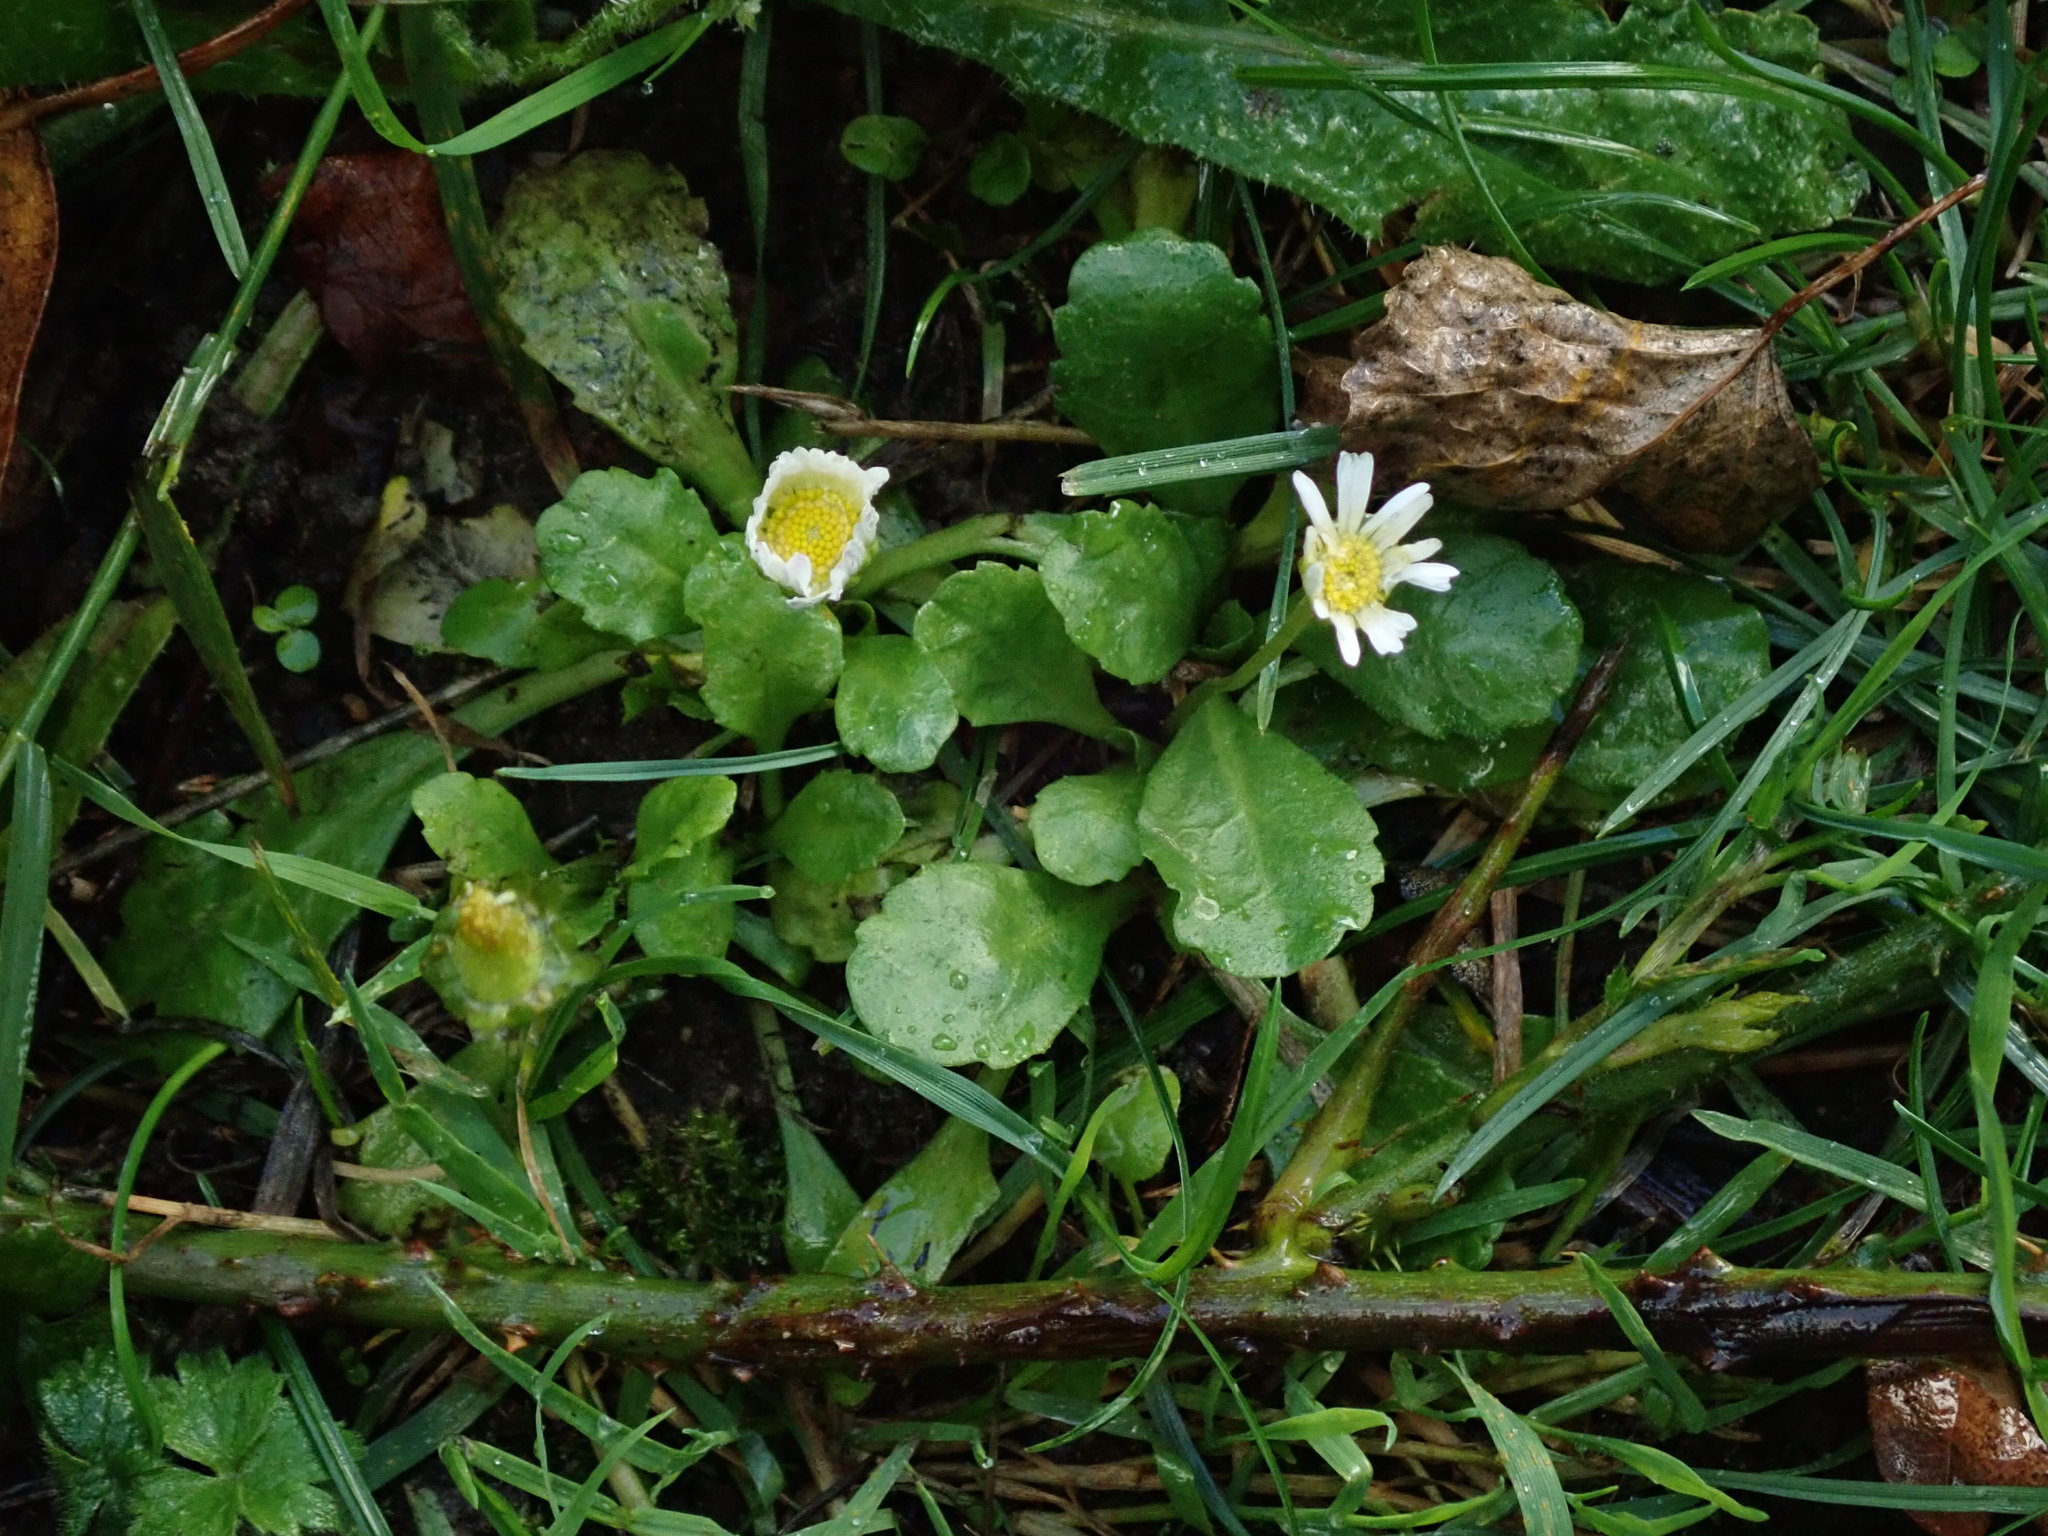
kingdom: Plantae
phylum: Tracheophyta
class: Magnoliopsida
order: Asterales
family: Asteraceae
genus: Bellis
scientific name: Bellis perennis
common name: Lawndaisy
